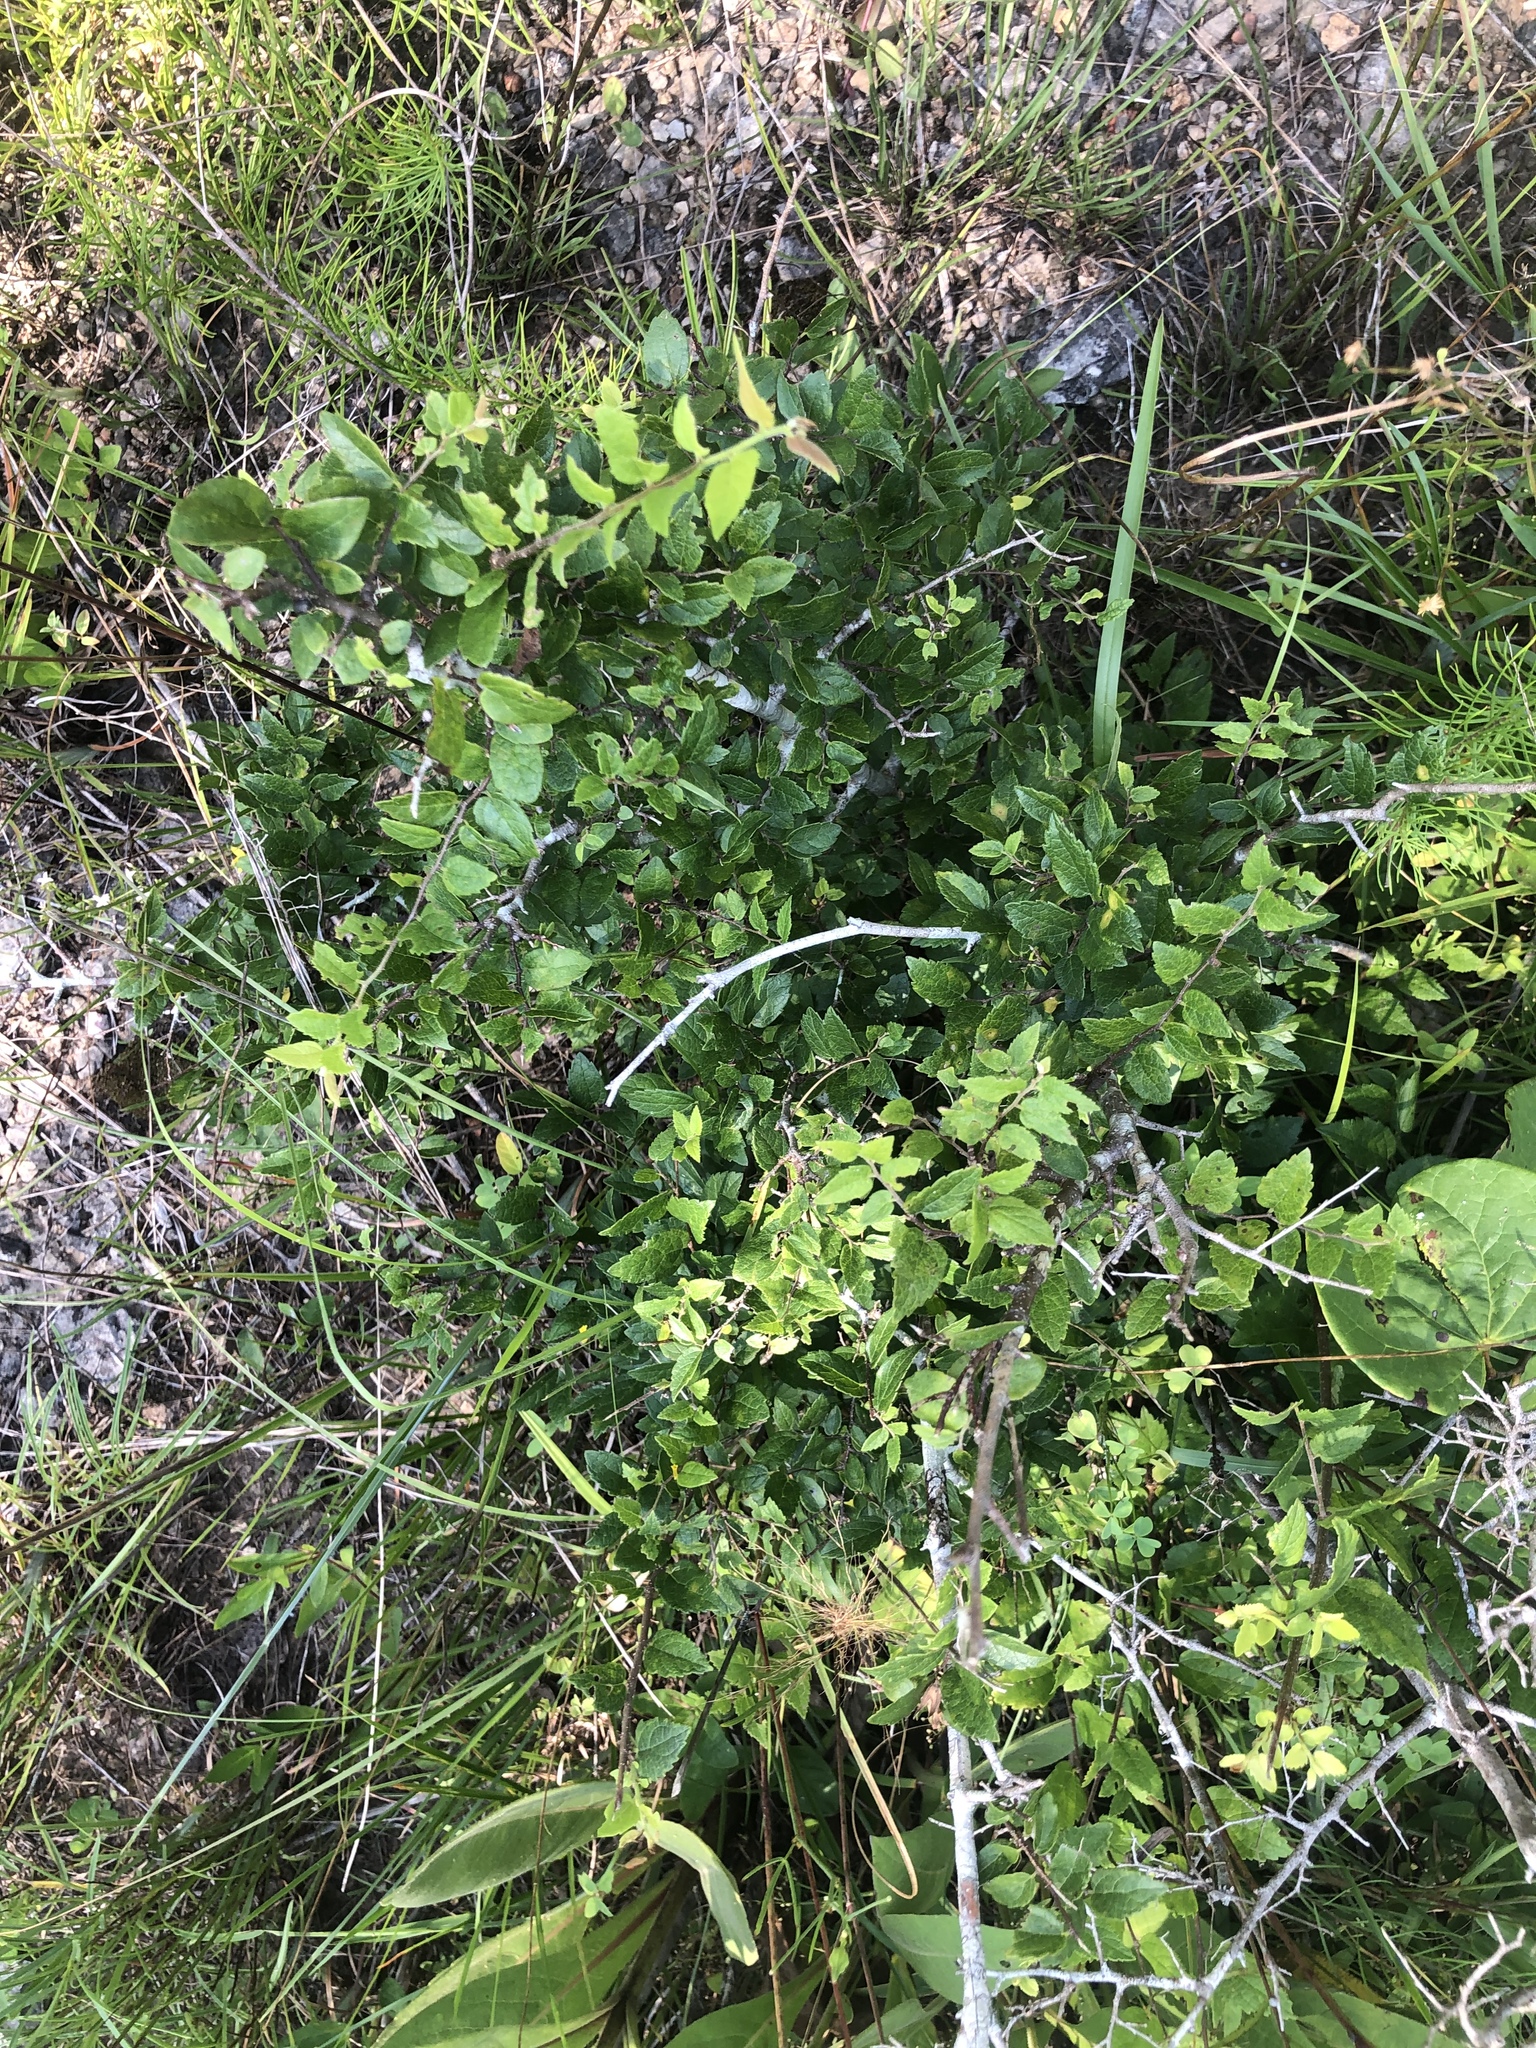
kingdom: Plantae
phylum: Tracheophyta
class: Magnoliopsida
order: Rosales
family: Cannabaceae
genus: Celtis
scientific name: Celtis tenuifolia
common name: Georgia hackberry
